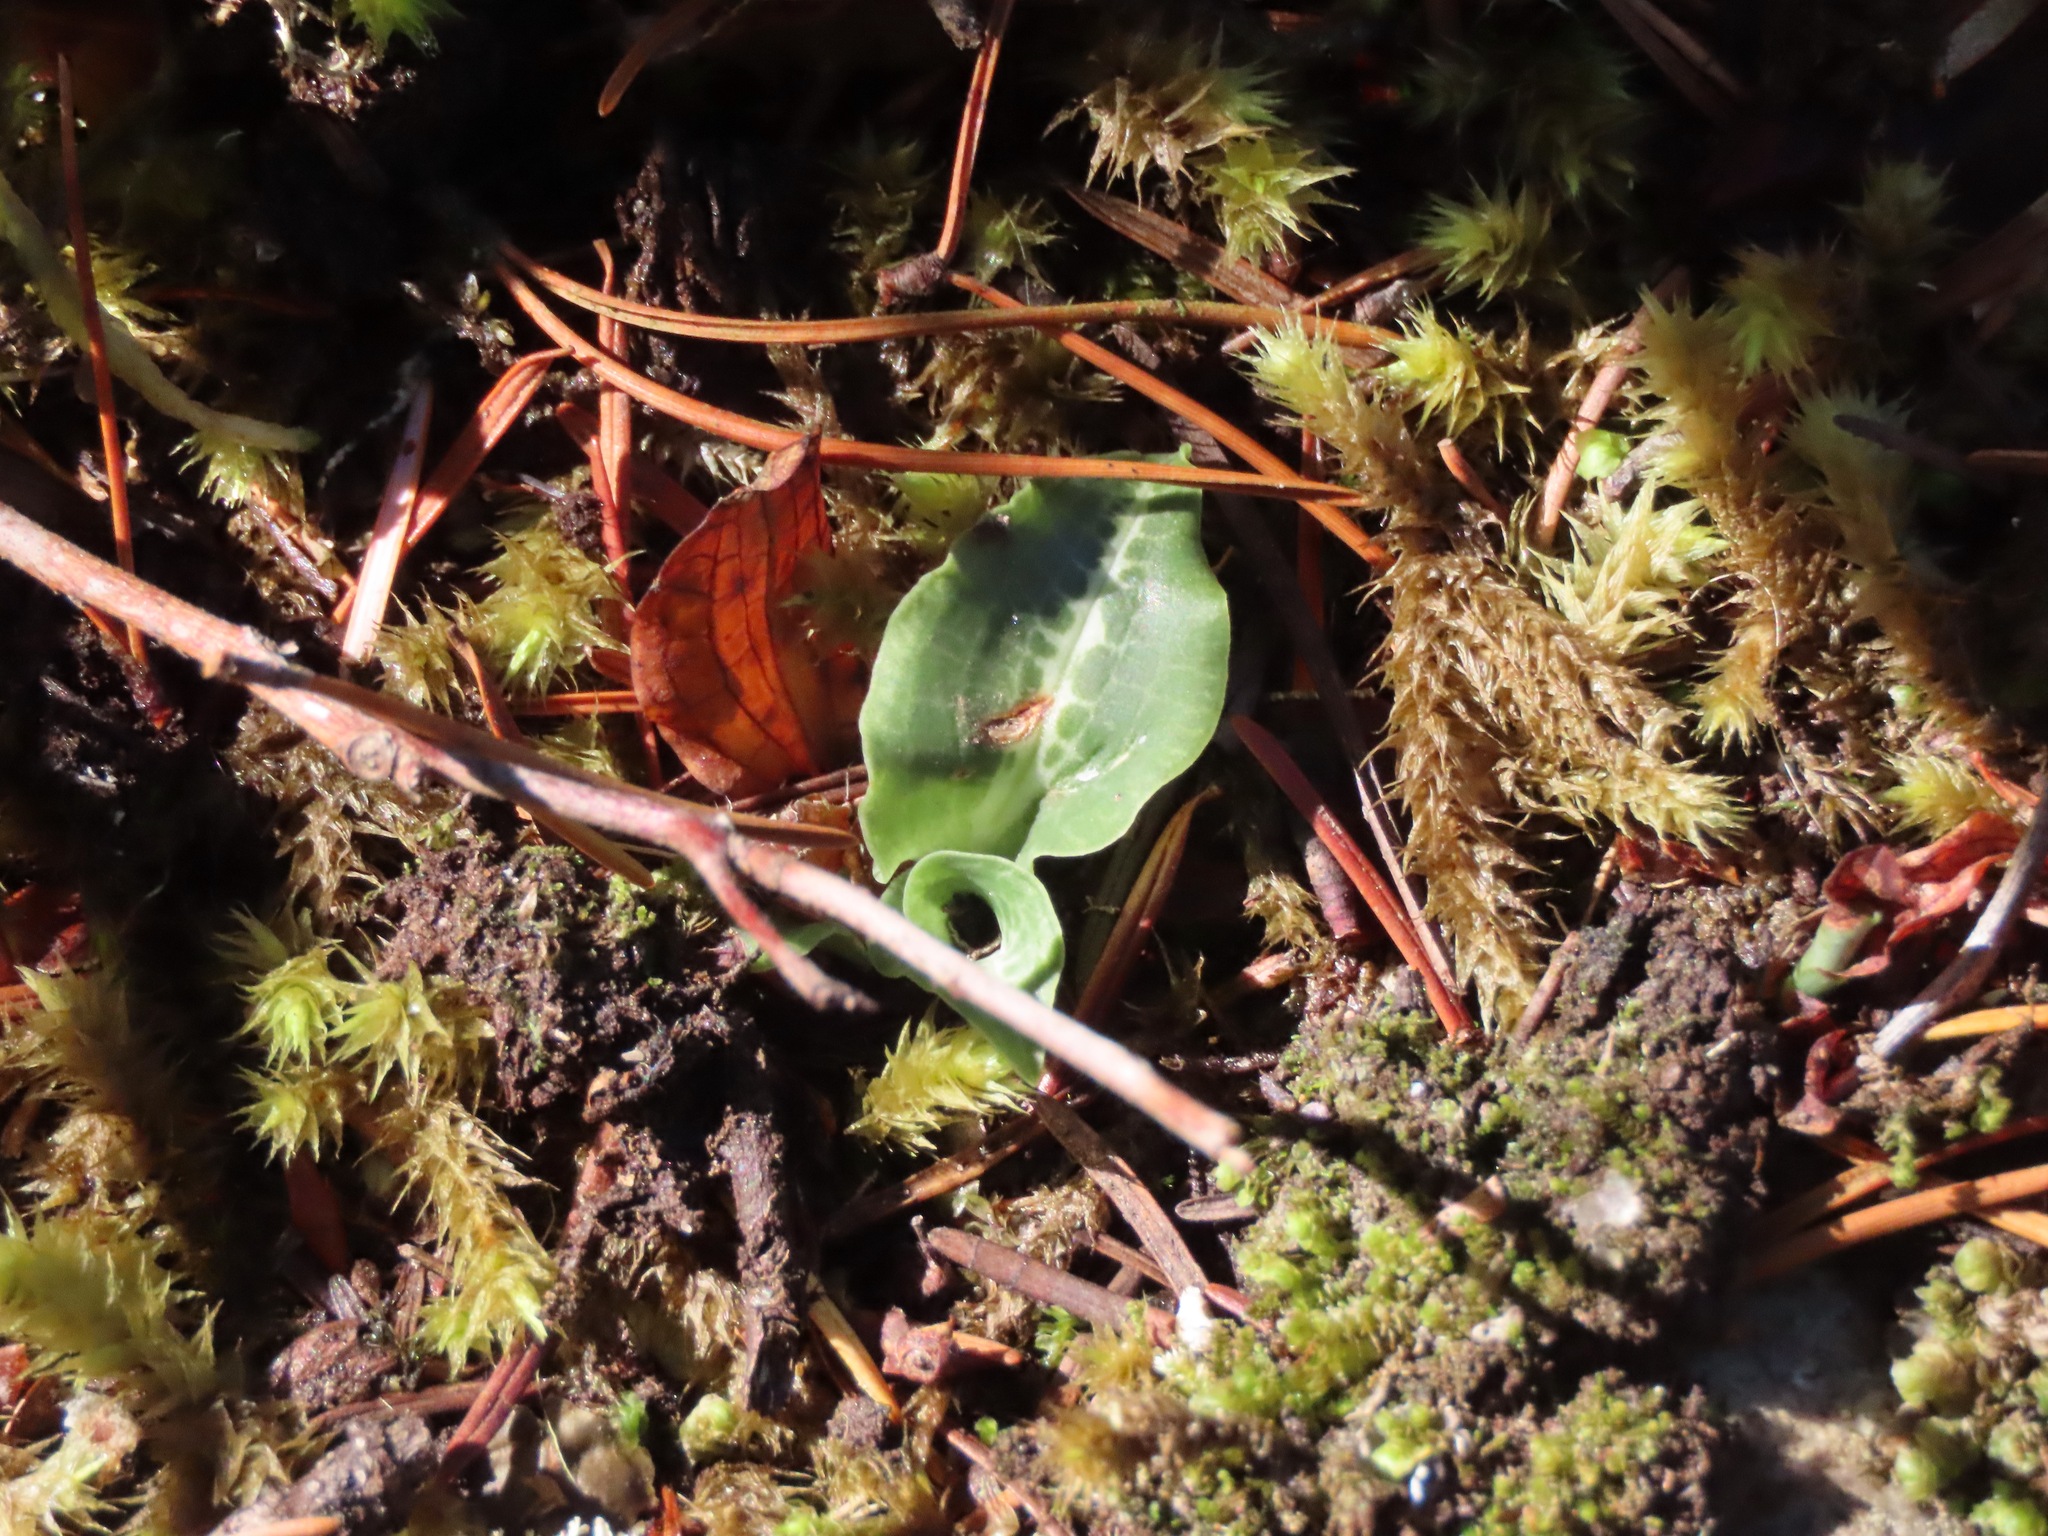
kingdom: Plantae
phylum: Tracheophyta
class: Liliopsida
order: Asparagales
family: Orchidaceae
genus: Goodyera
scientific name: Goodyera oblongifolia
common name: Giant rattlesnake-plantain
